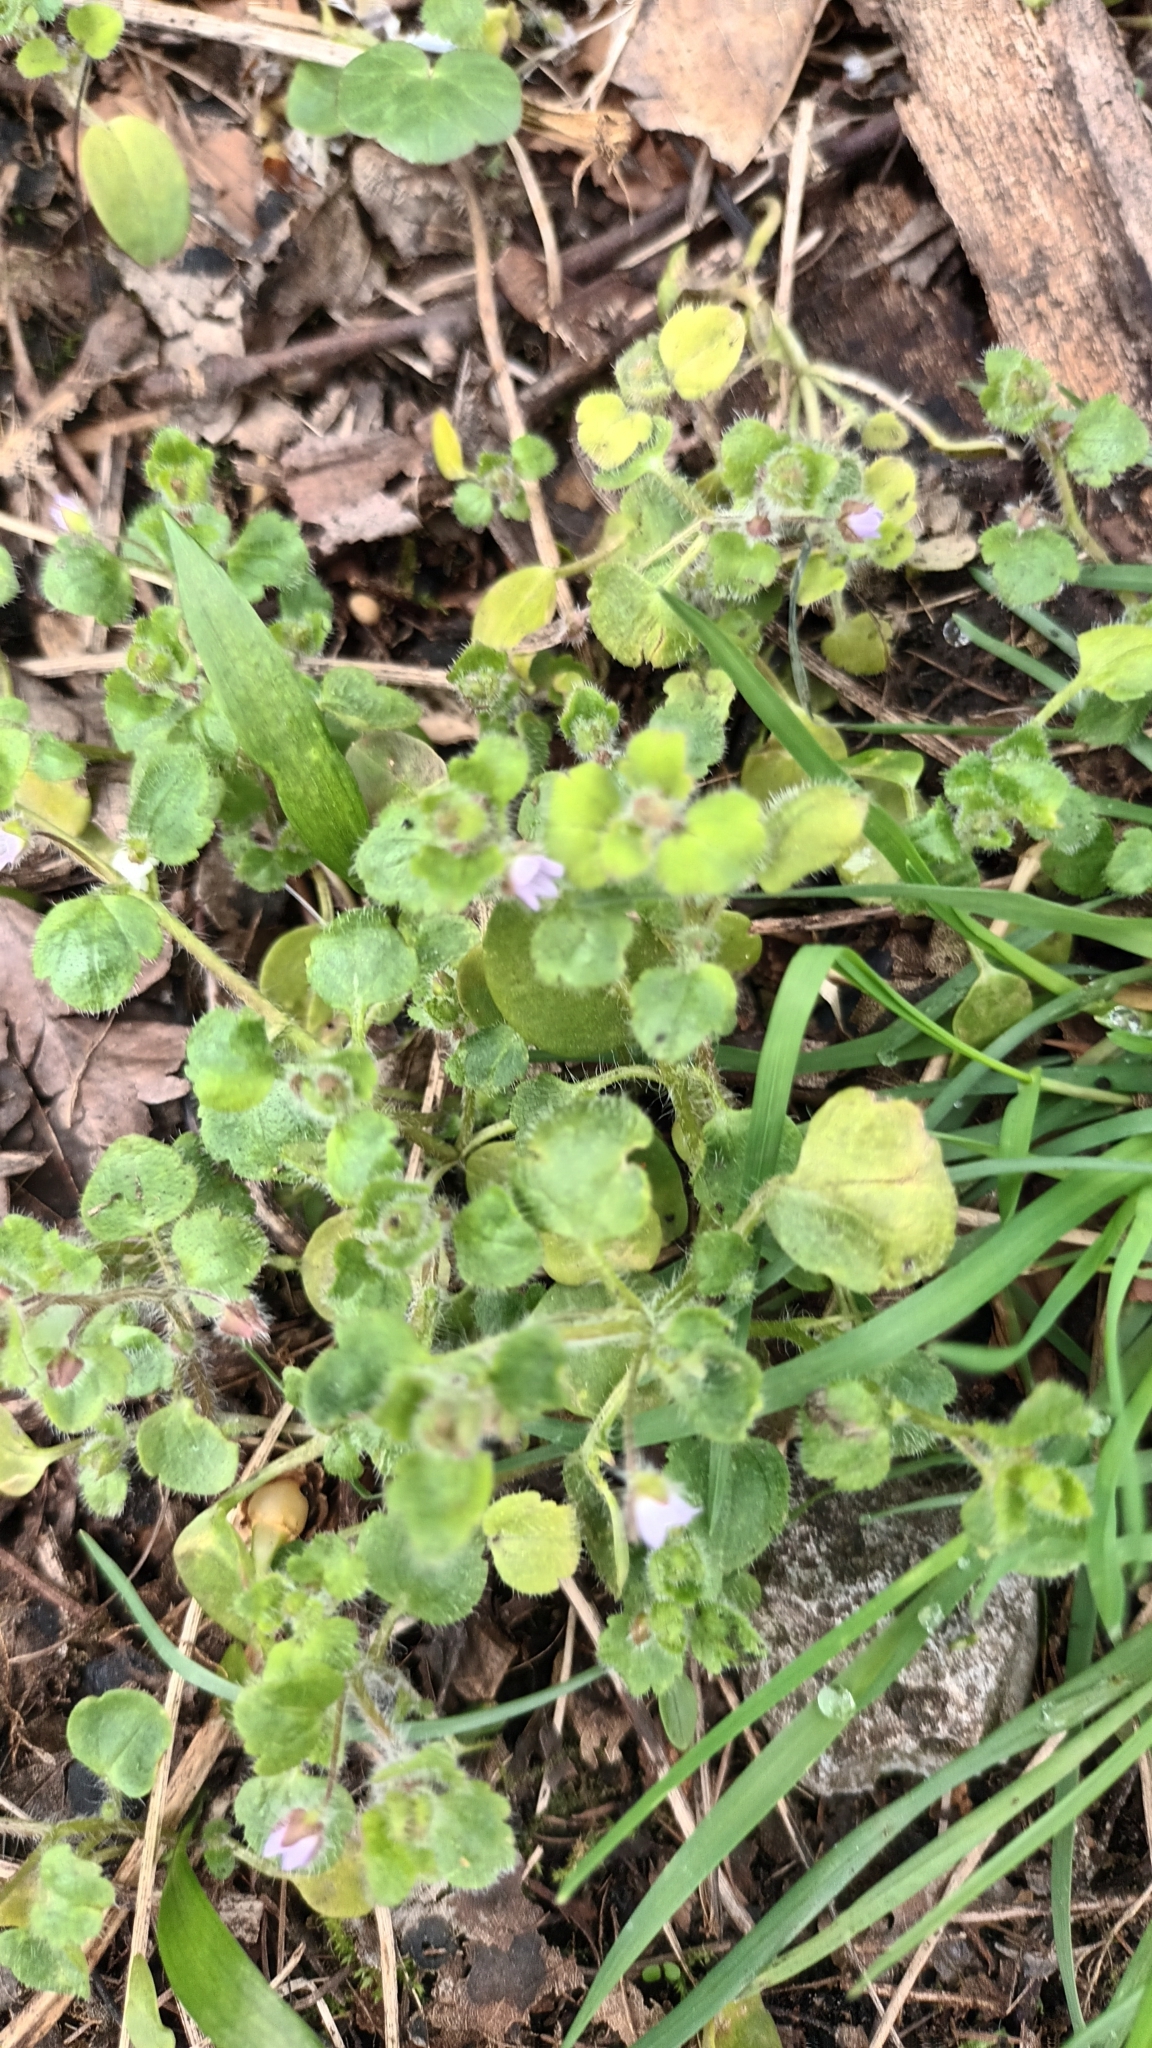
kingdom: Plantae
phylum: Tracheophyta
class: Magnoliopsida
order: Lamiales
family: Plantaginaceae
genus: Veronica
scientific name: Veronica hederifolia
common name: Ivy-leaved speedwell
